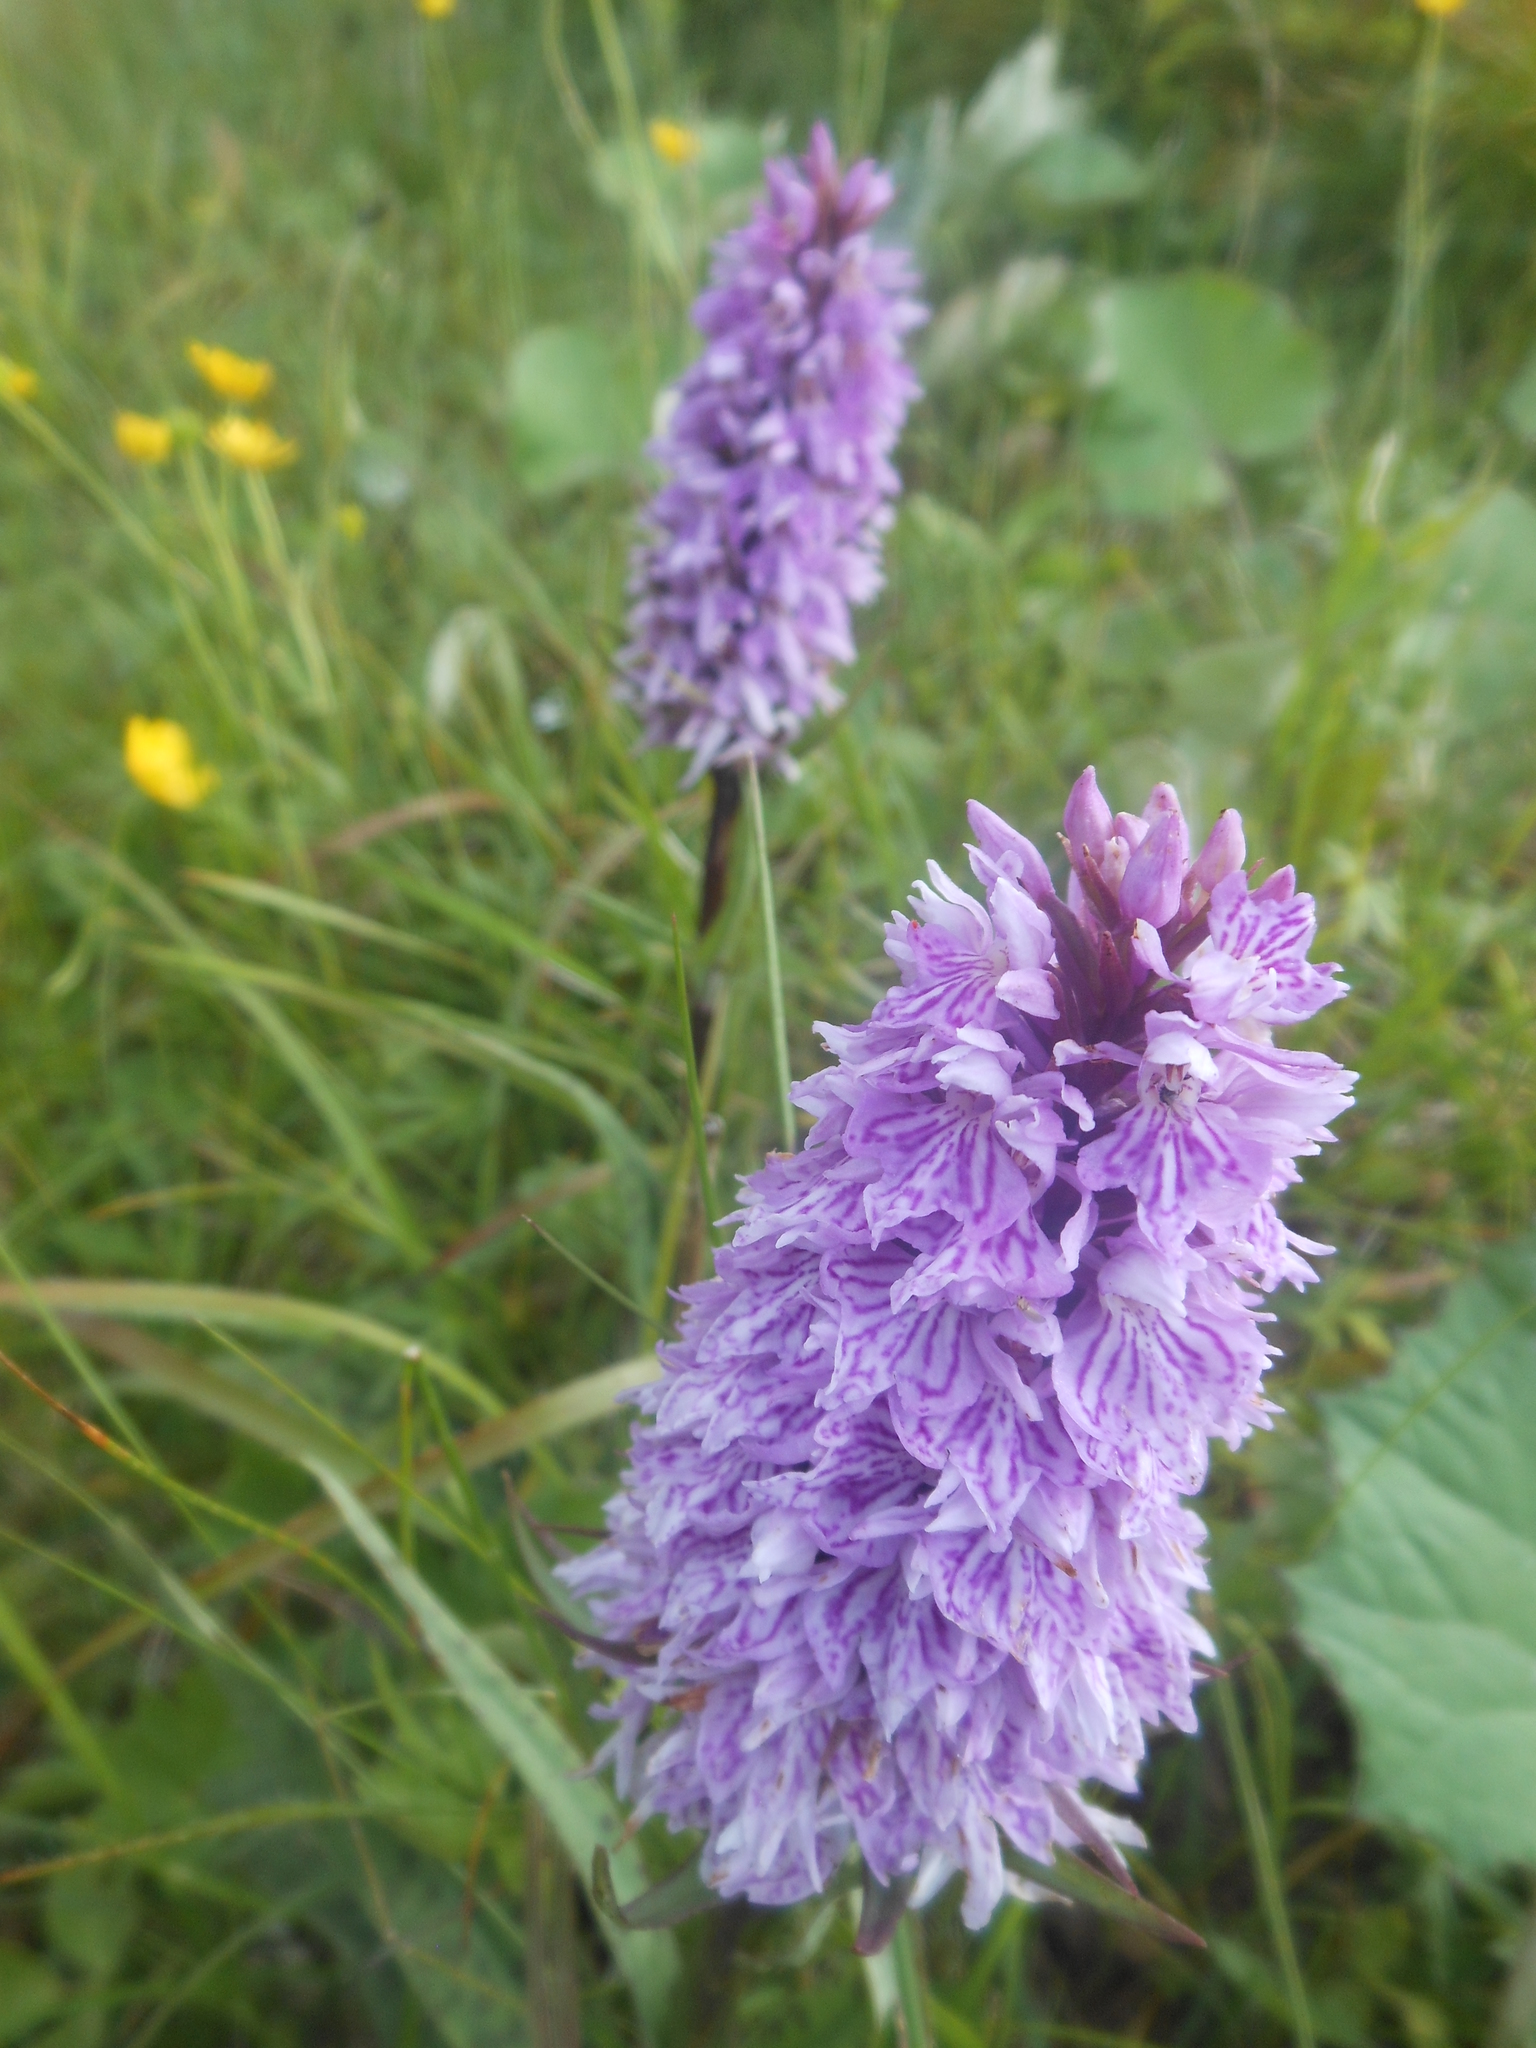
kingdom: Plantae
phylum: Tracheophyta
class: Liliopsida
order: Asparagales
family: Orchidaceae
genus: Dactylorhiza
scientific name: Dactylorhiza maculata
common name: Heath spotted-orchid
